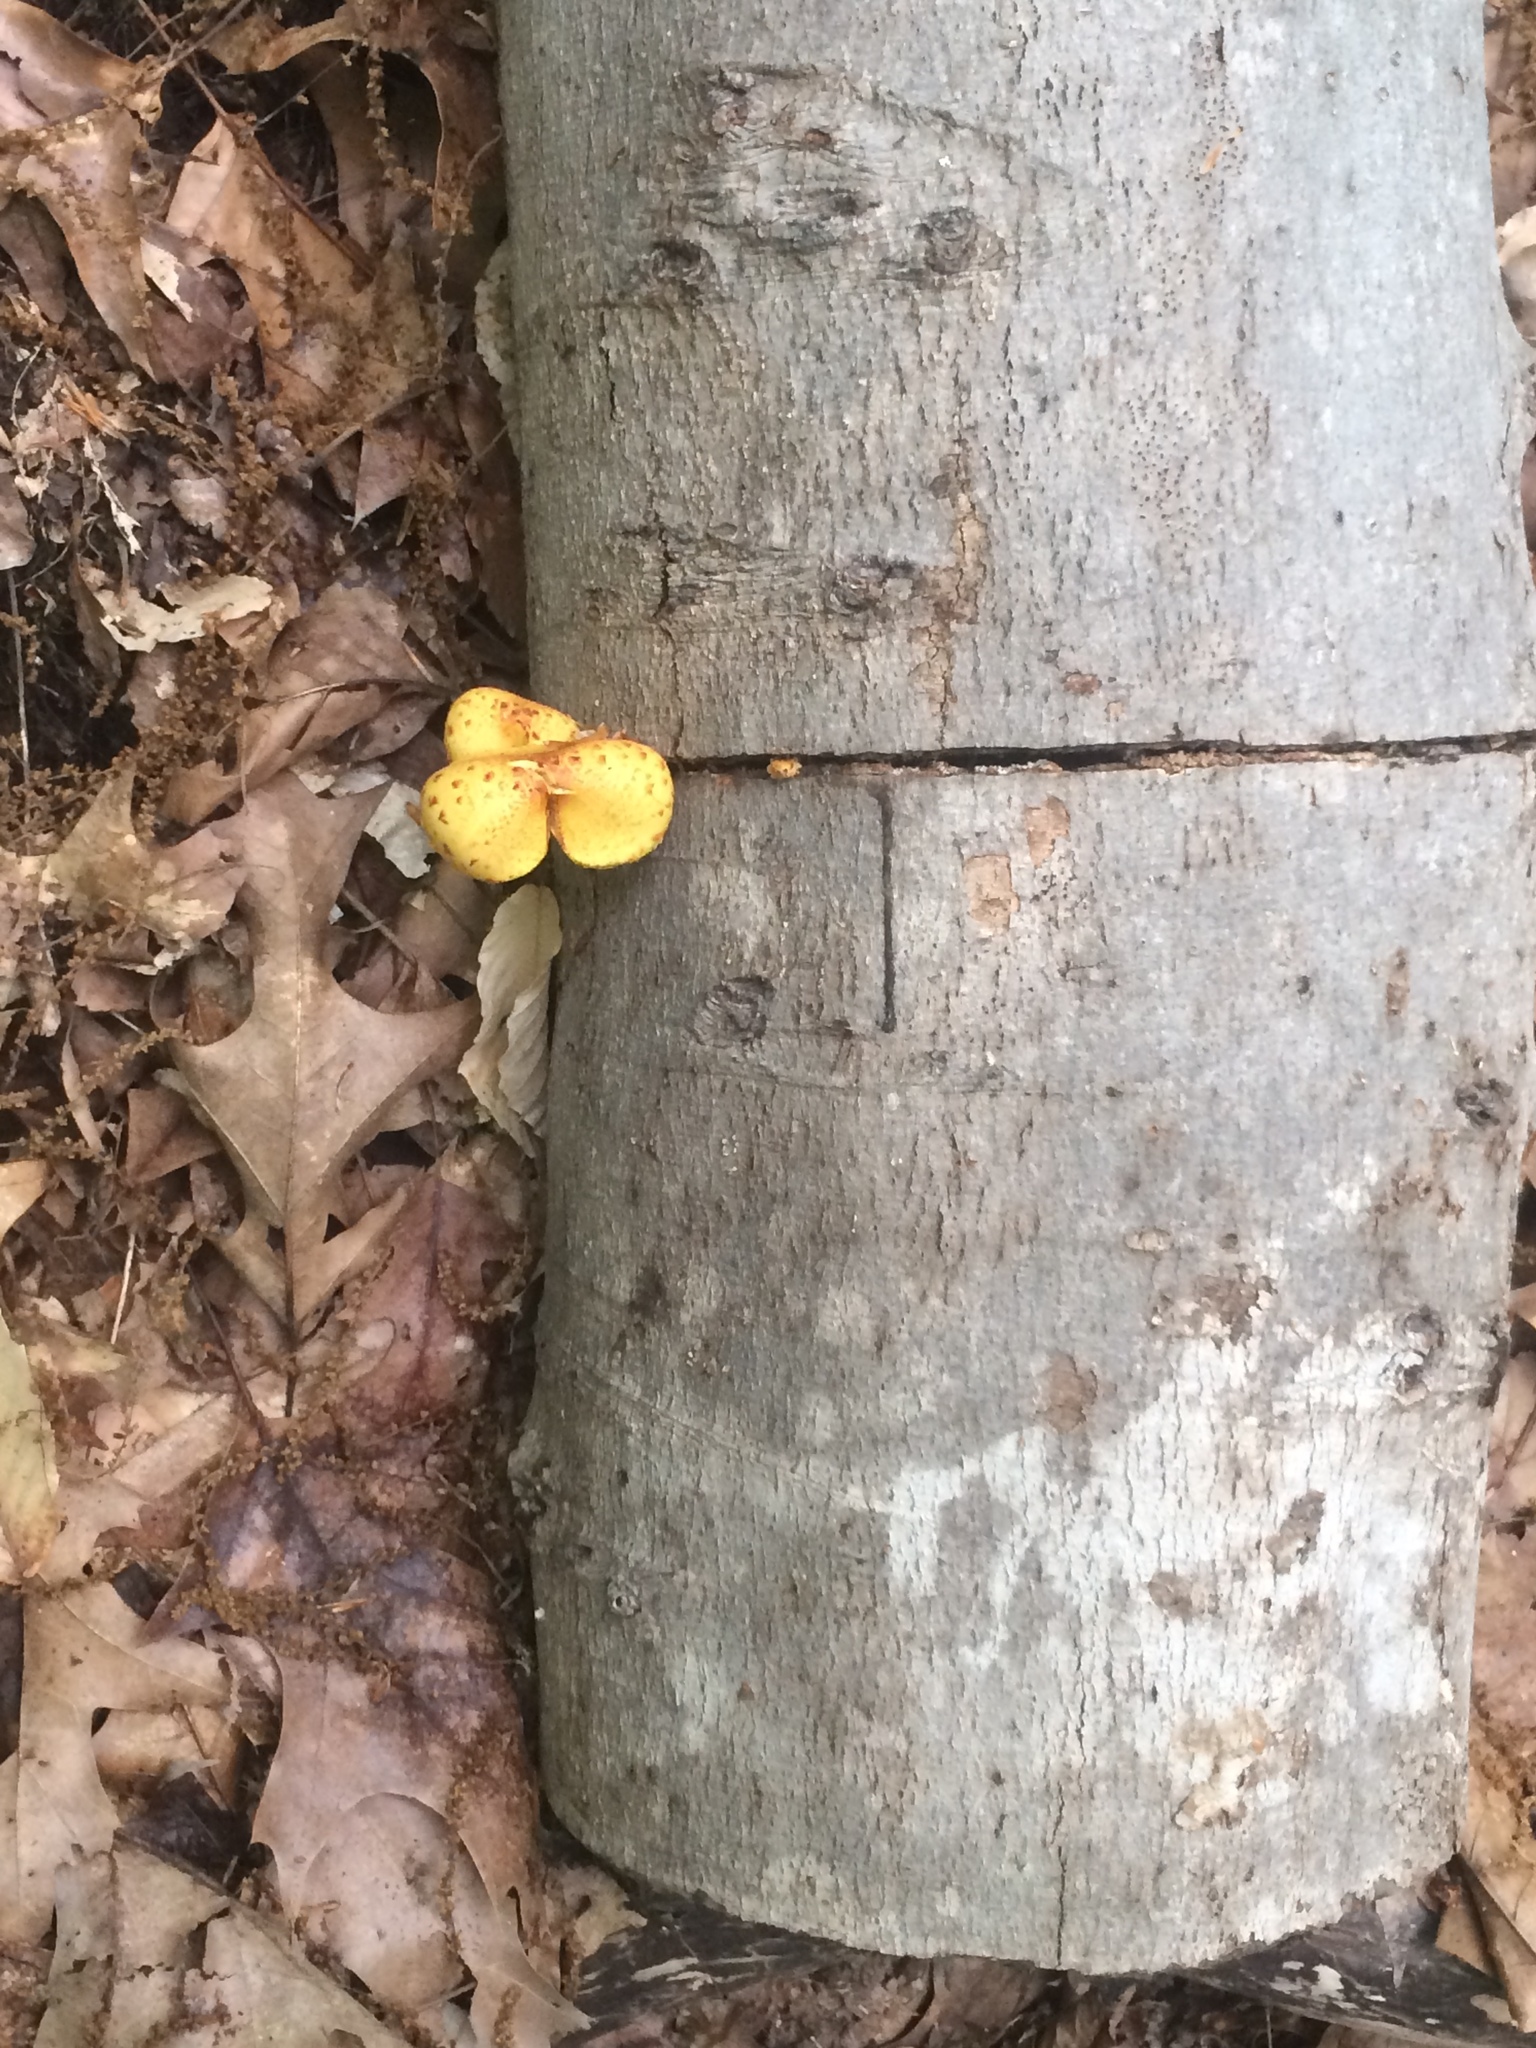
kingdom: Fungi
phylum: Basidiomycota
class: Agaricomycetes
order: Agaricales
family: Strophariaceae
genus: Pholiota
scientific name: Pholiota aurivella
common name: Golden scalycap
